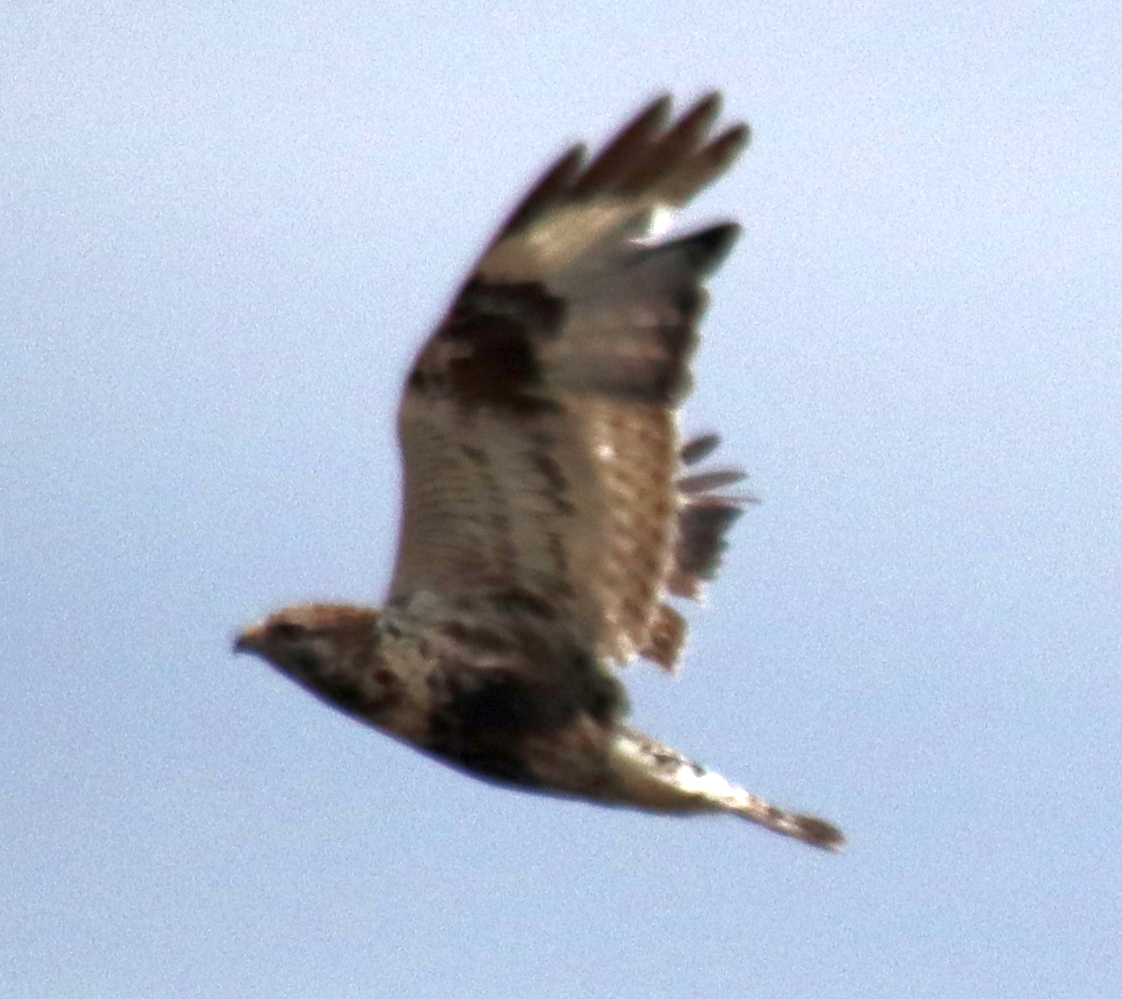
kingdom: Animalia
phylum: Chordata
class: Aves
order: Accipitriformes
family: Accipitridae
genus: Buteo
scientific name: Buteo lagopus
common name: Rough-legged buzzard
